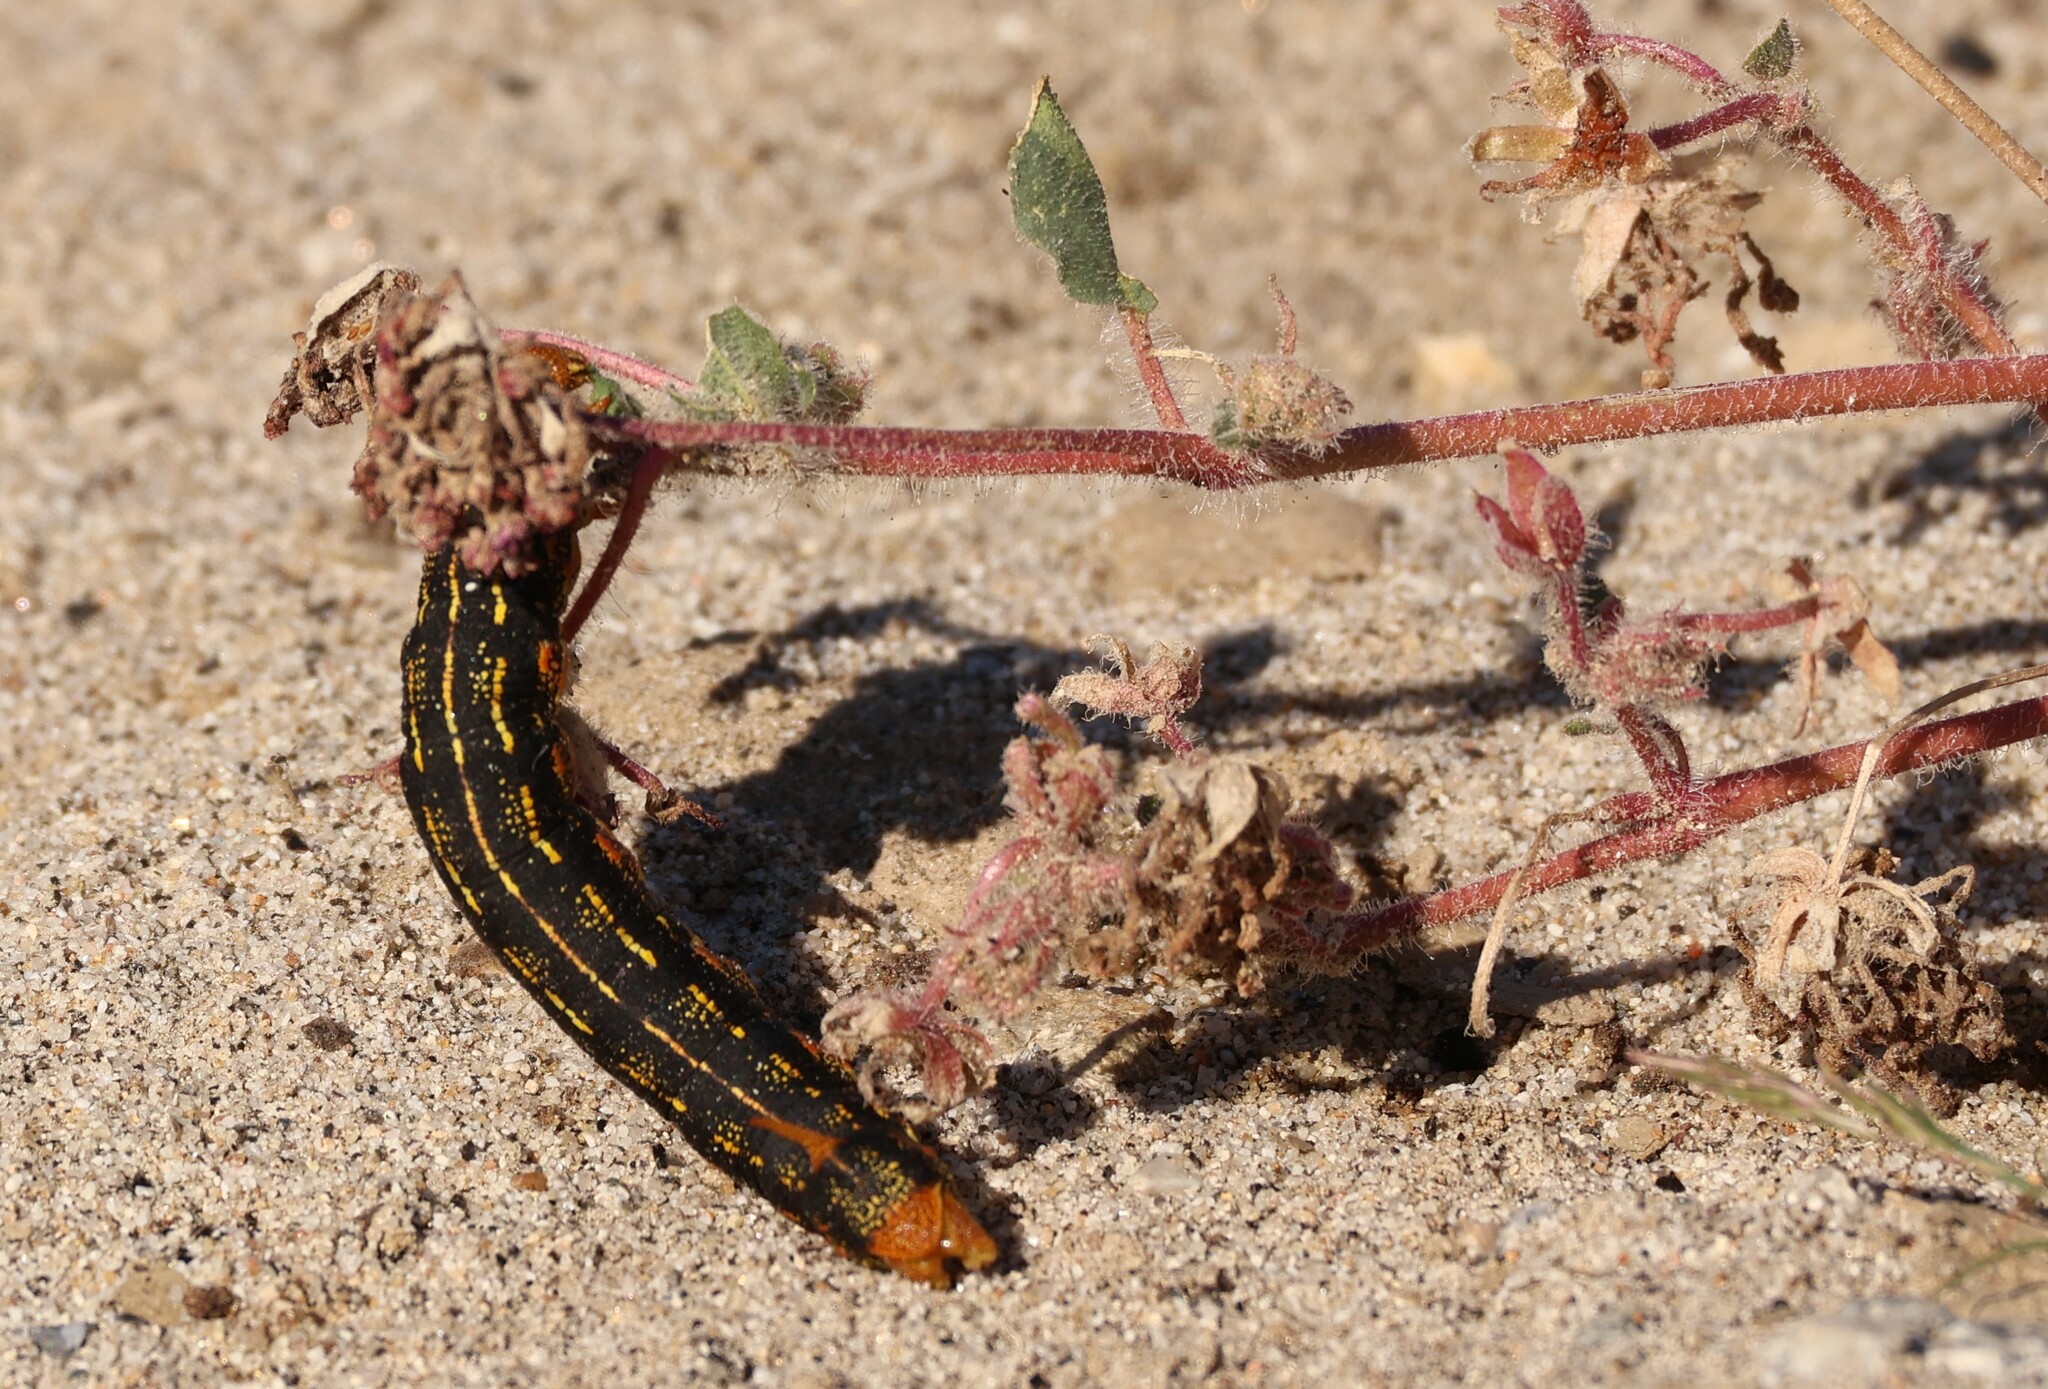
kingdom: Animalia
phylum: Arthropoda
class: Insecta
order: Lepidoptera
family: Sphingidae
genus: Hyles
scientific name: Hyles lineata
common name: White-lined sphinx
